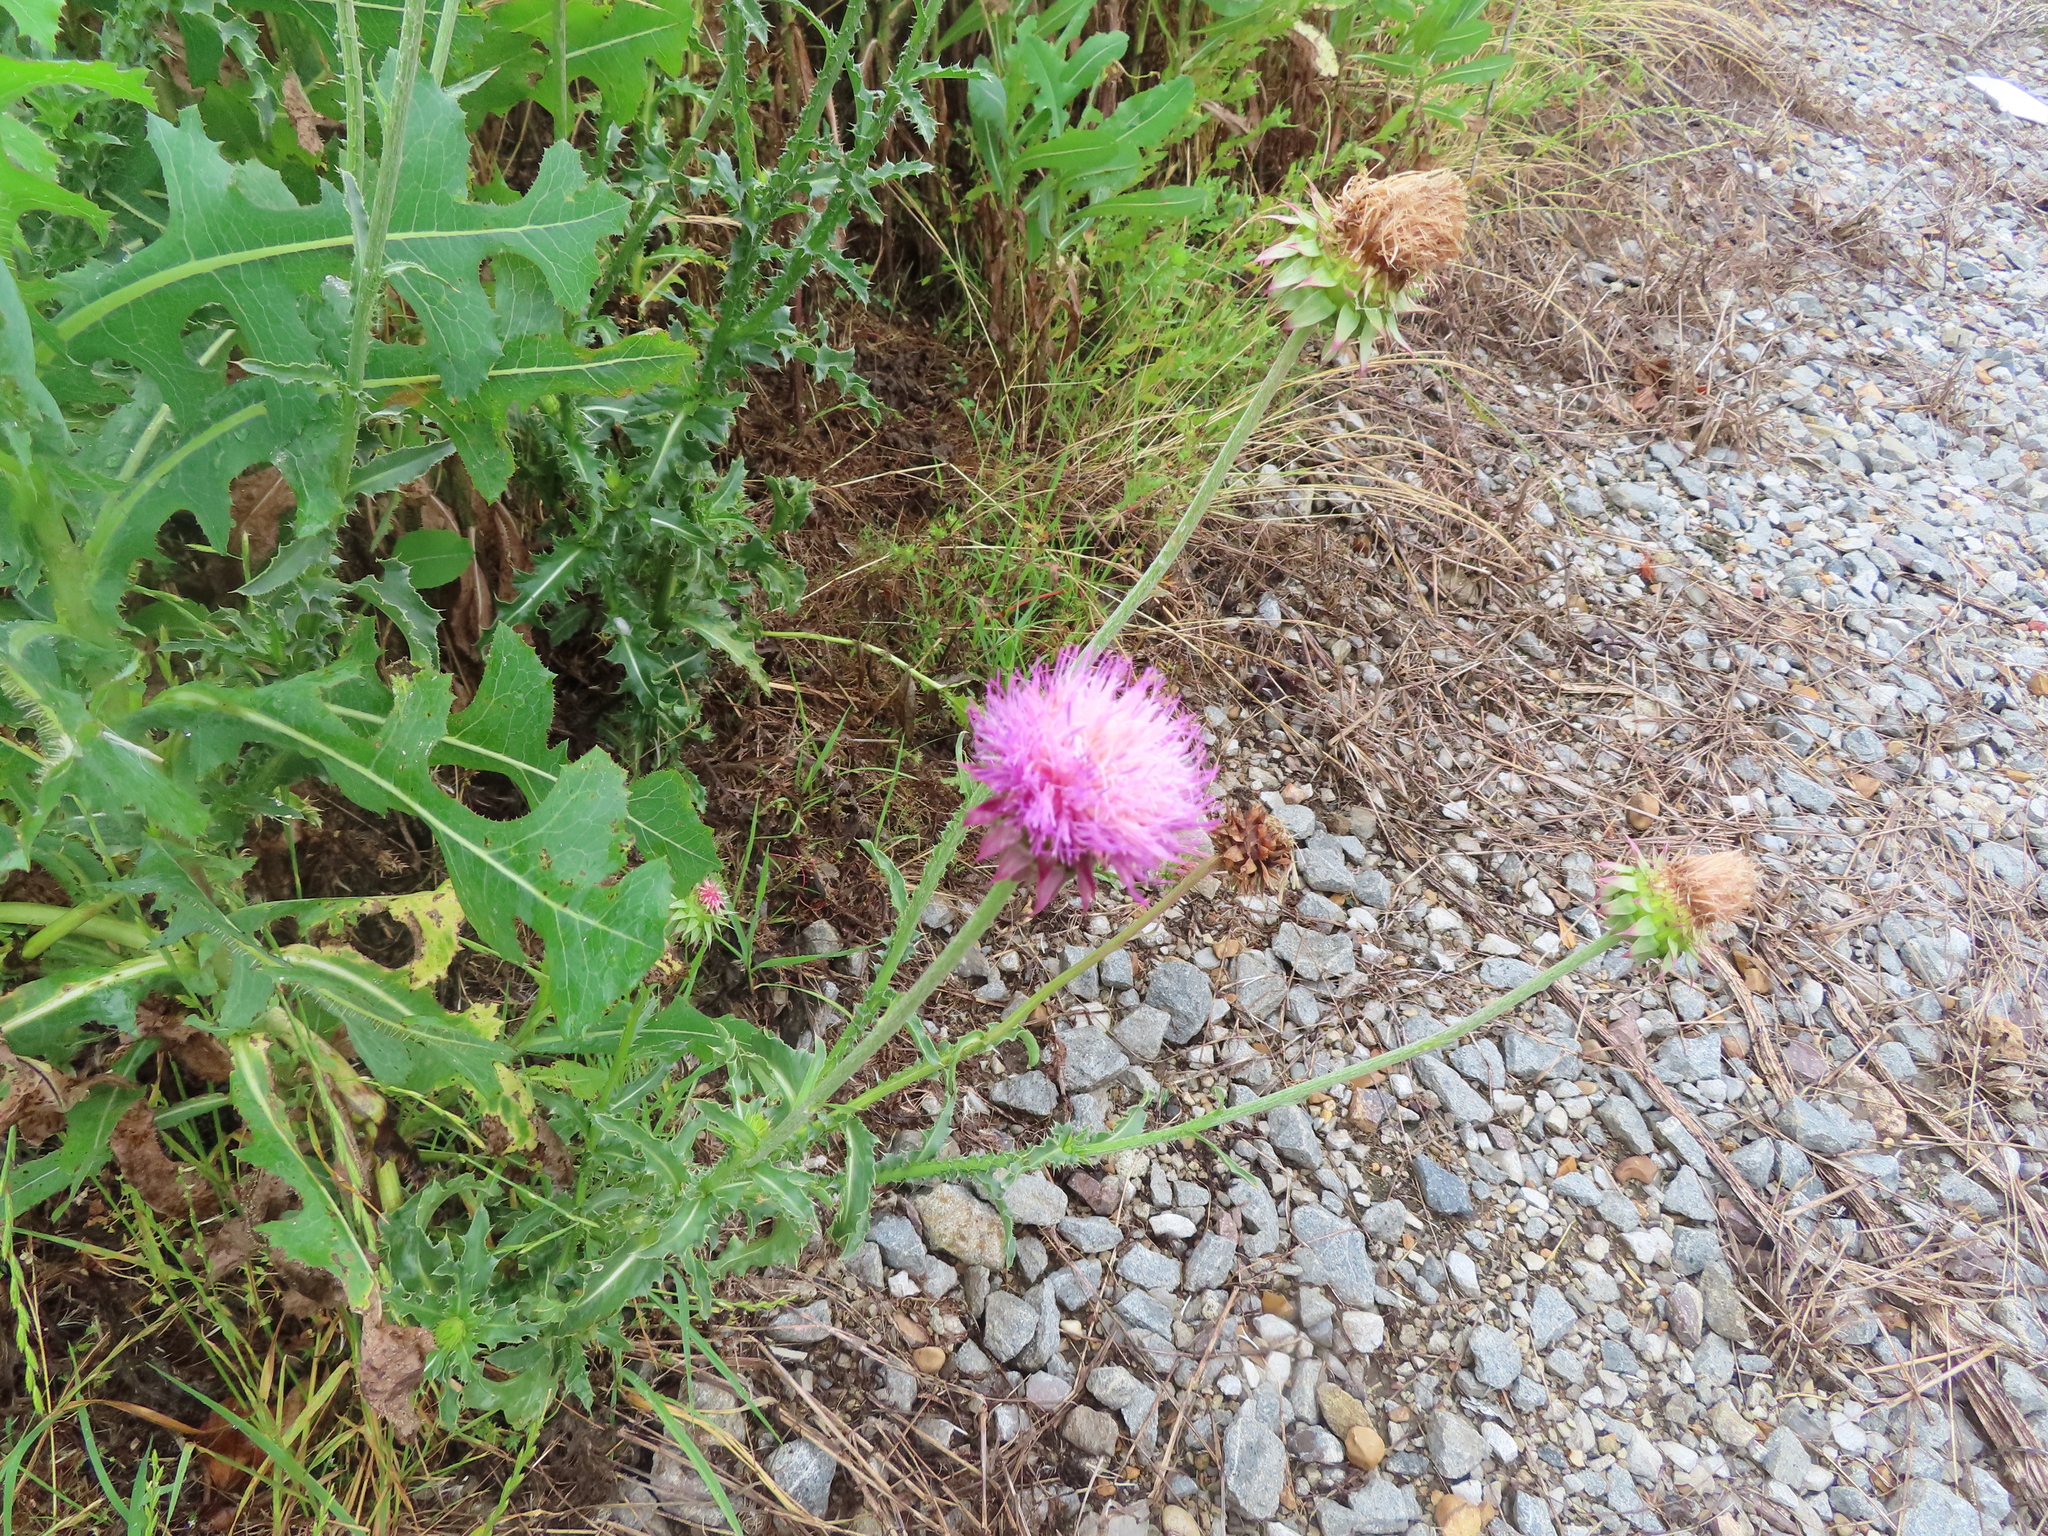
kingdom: Plantae
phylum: Tracheophyta
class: Magnoliopsida
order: Asterales
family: Asteraceae
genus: Carduus
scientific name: Carduus nutans
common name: Musk thistle
